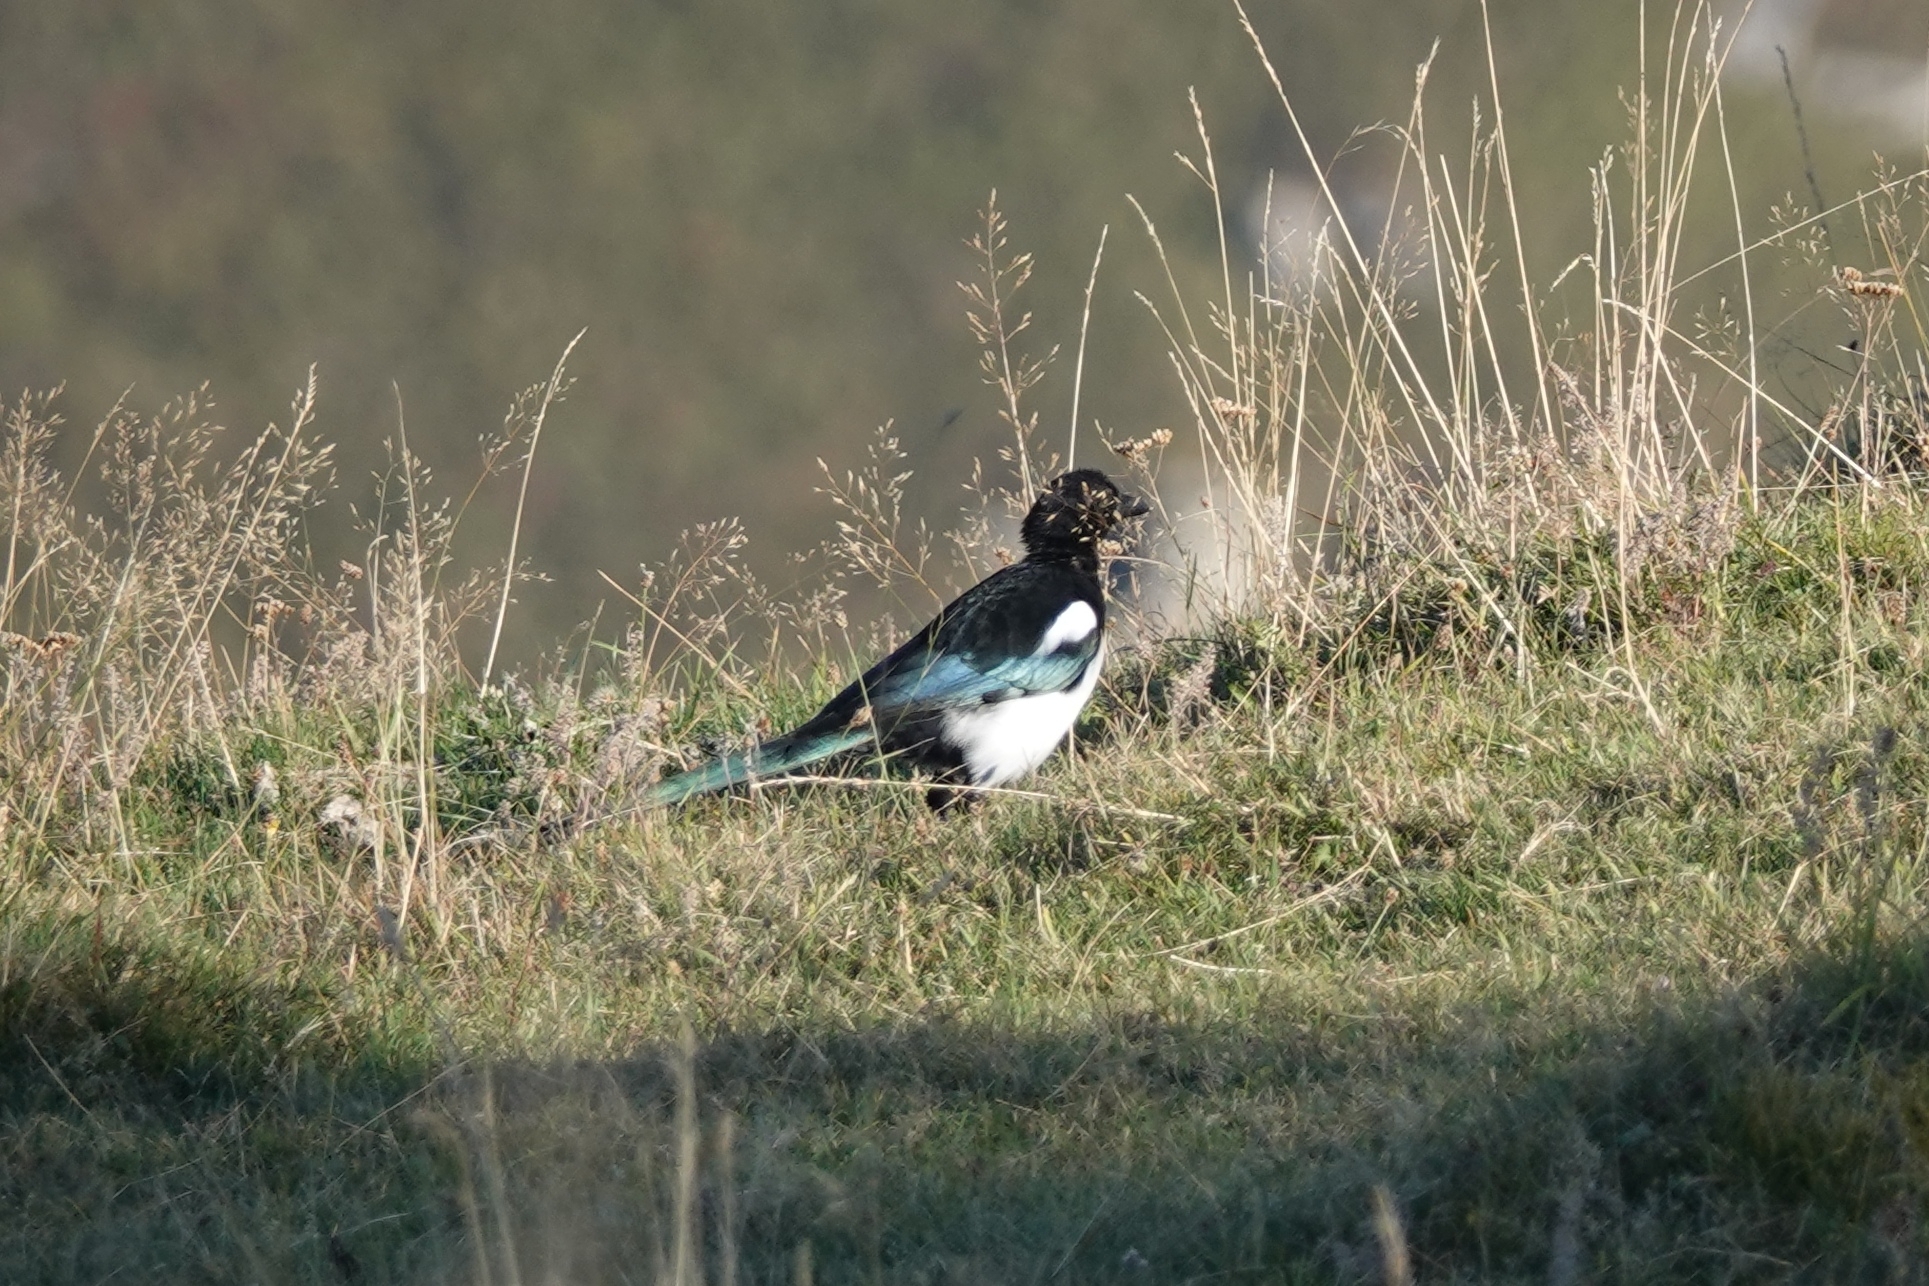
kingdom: Animalia
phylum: Chordata
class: Aves
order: Passeriformes
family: Corvidae
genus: Pica
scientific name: Pica pica
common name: Eurasian magpie
